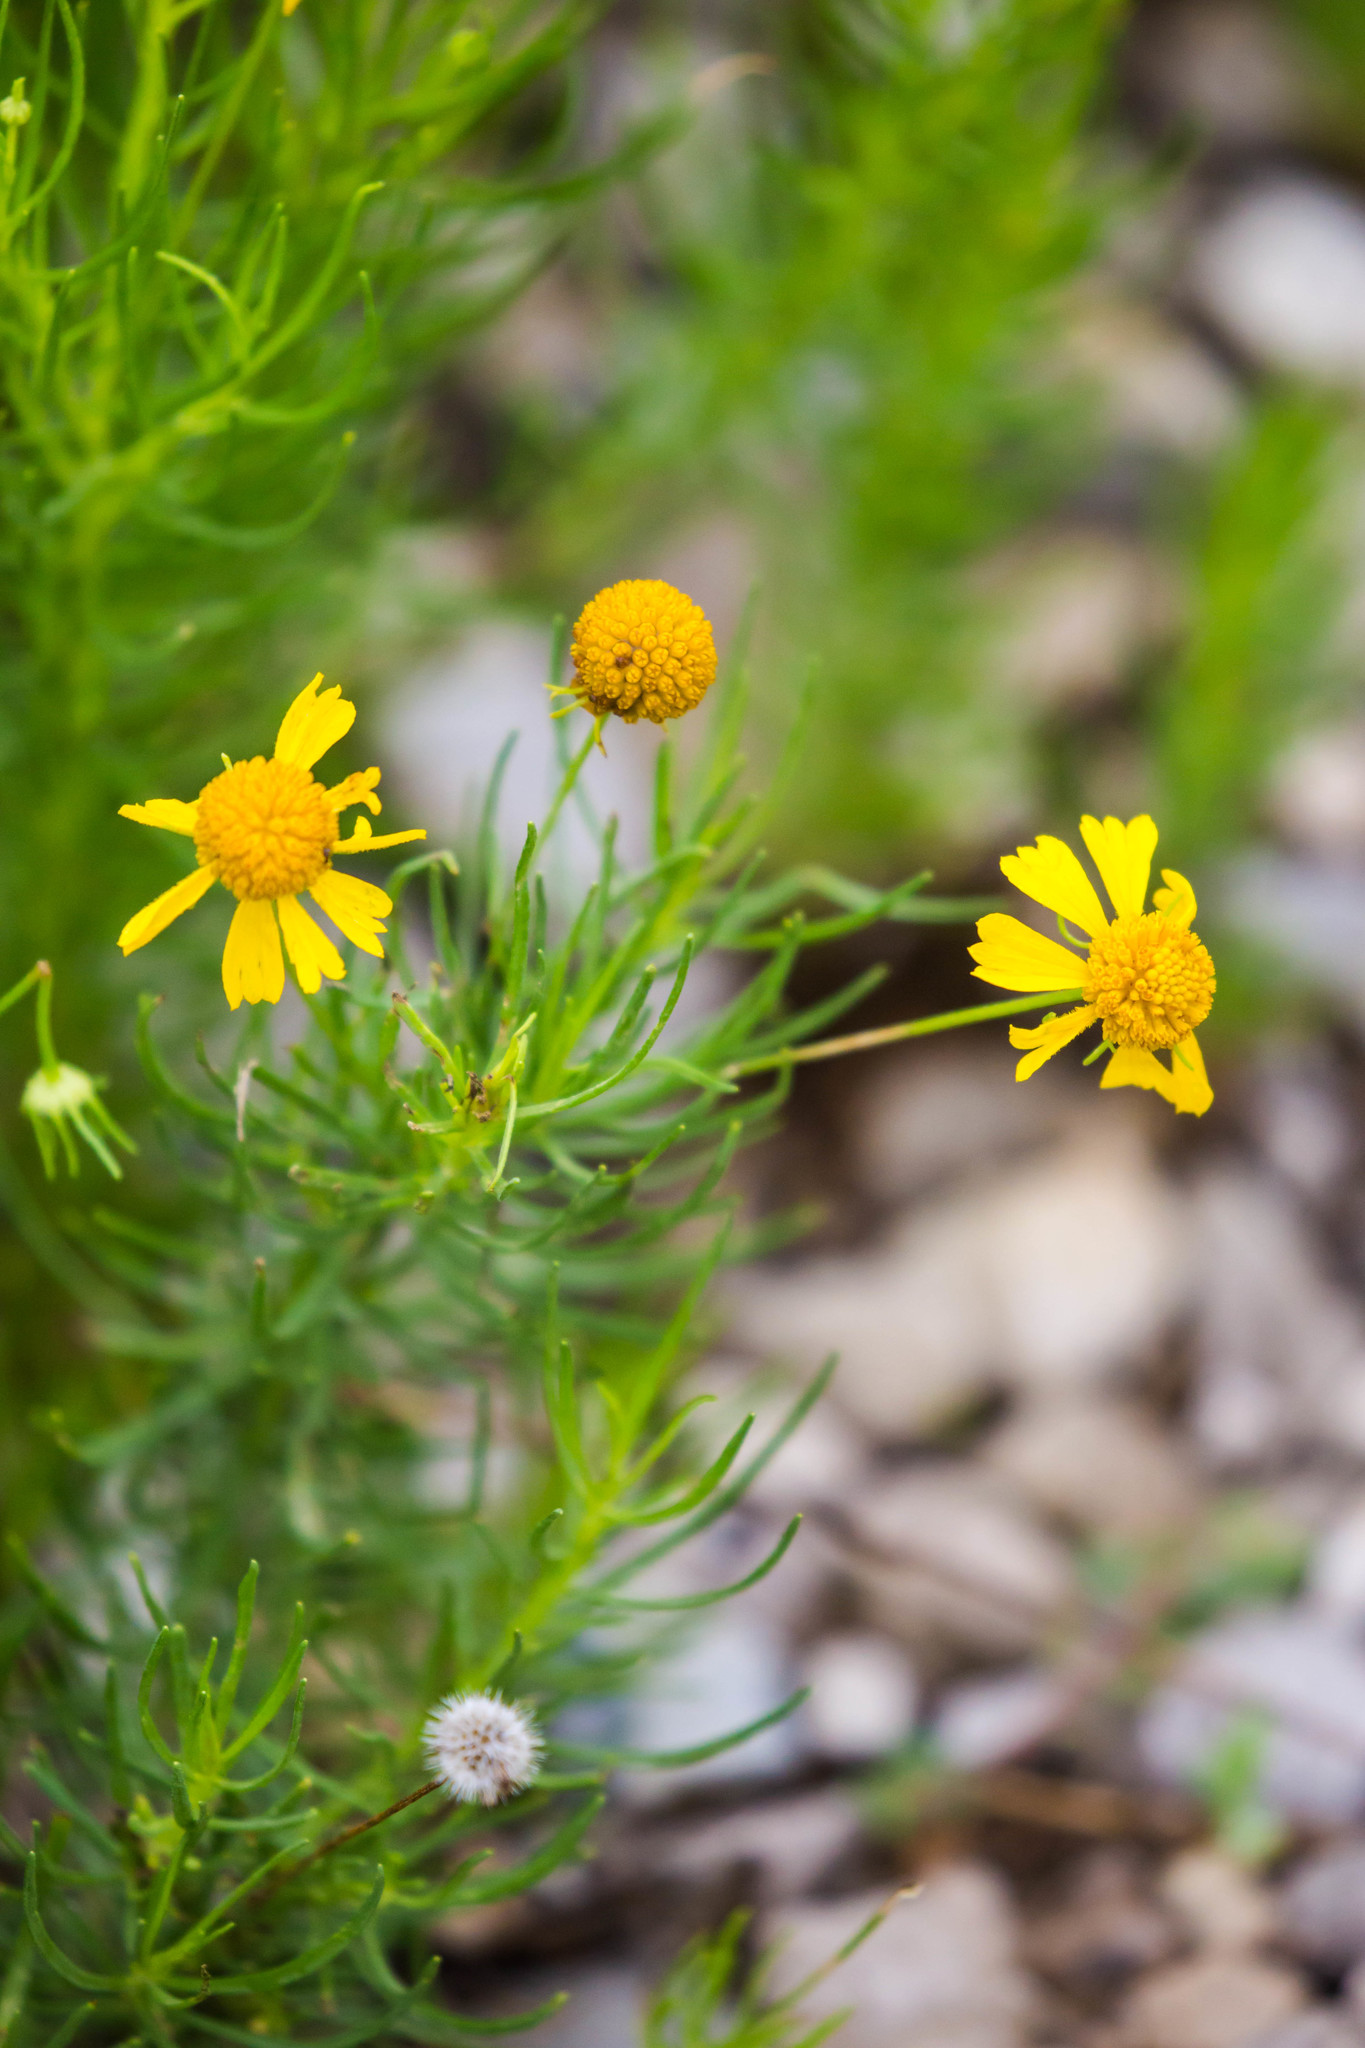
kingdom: Plantae
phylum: Tracheophyta
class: Magnoliopsida
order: Asterales
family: Asteraceae
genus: Helenium
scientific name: Helenium amarum
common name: Bitter sneezeweed
